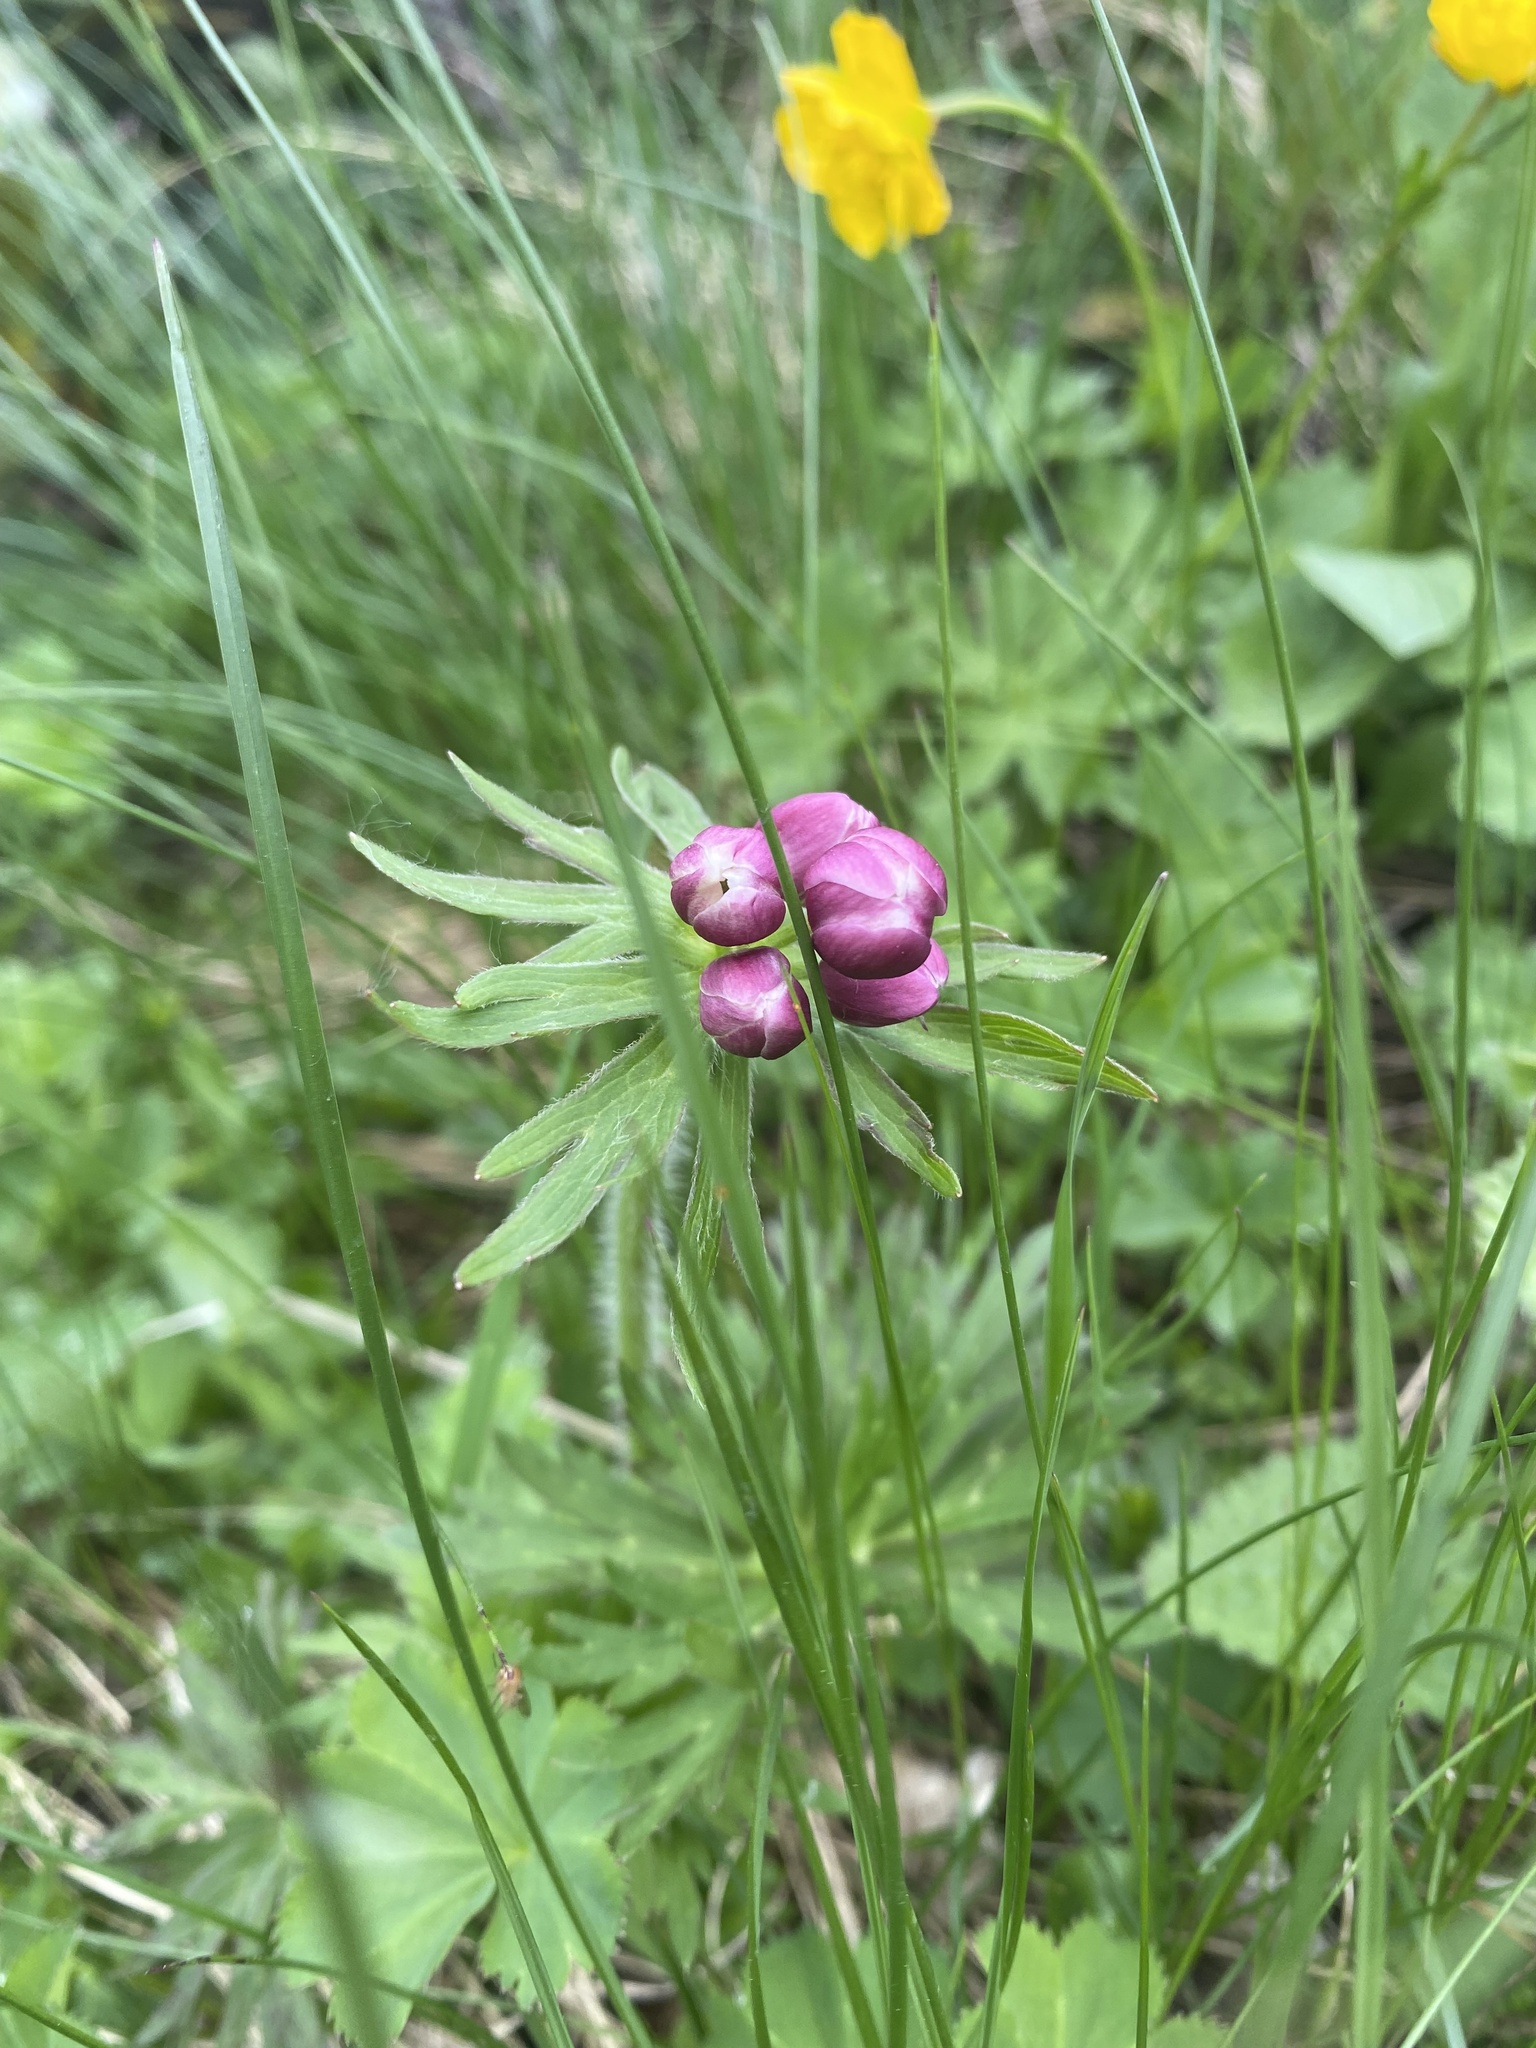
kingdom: Plantae
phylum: Tracheophyta
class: Magnoliopsida
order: Ranunculales
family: Ranunculaceae
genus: Anemonastrum
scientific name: Anemonastrum narcissiflorum
